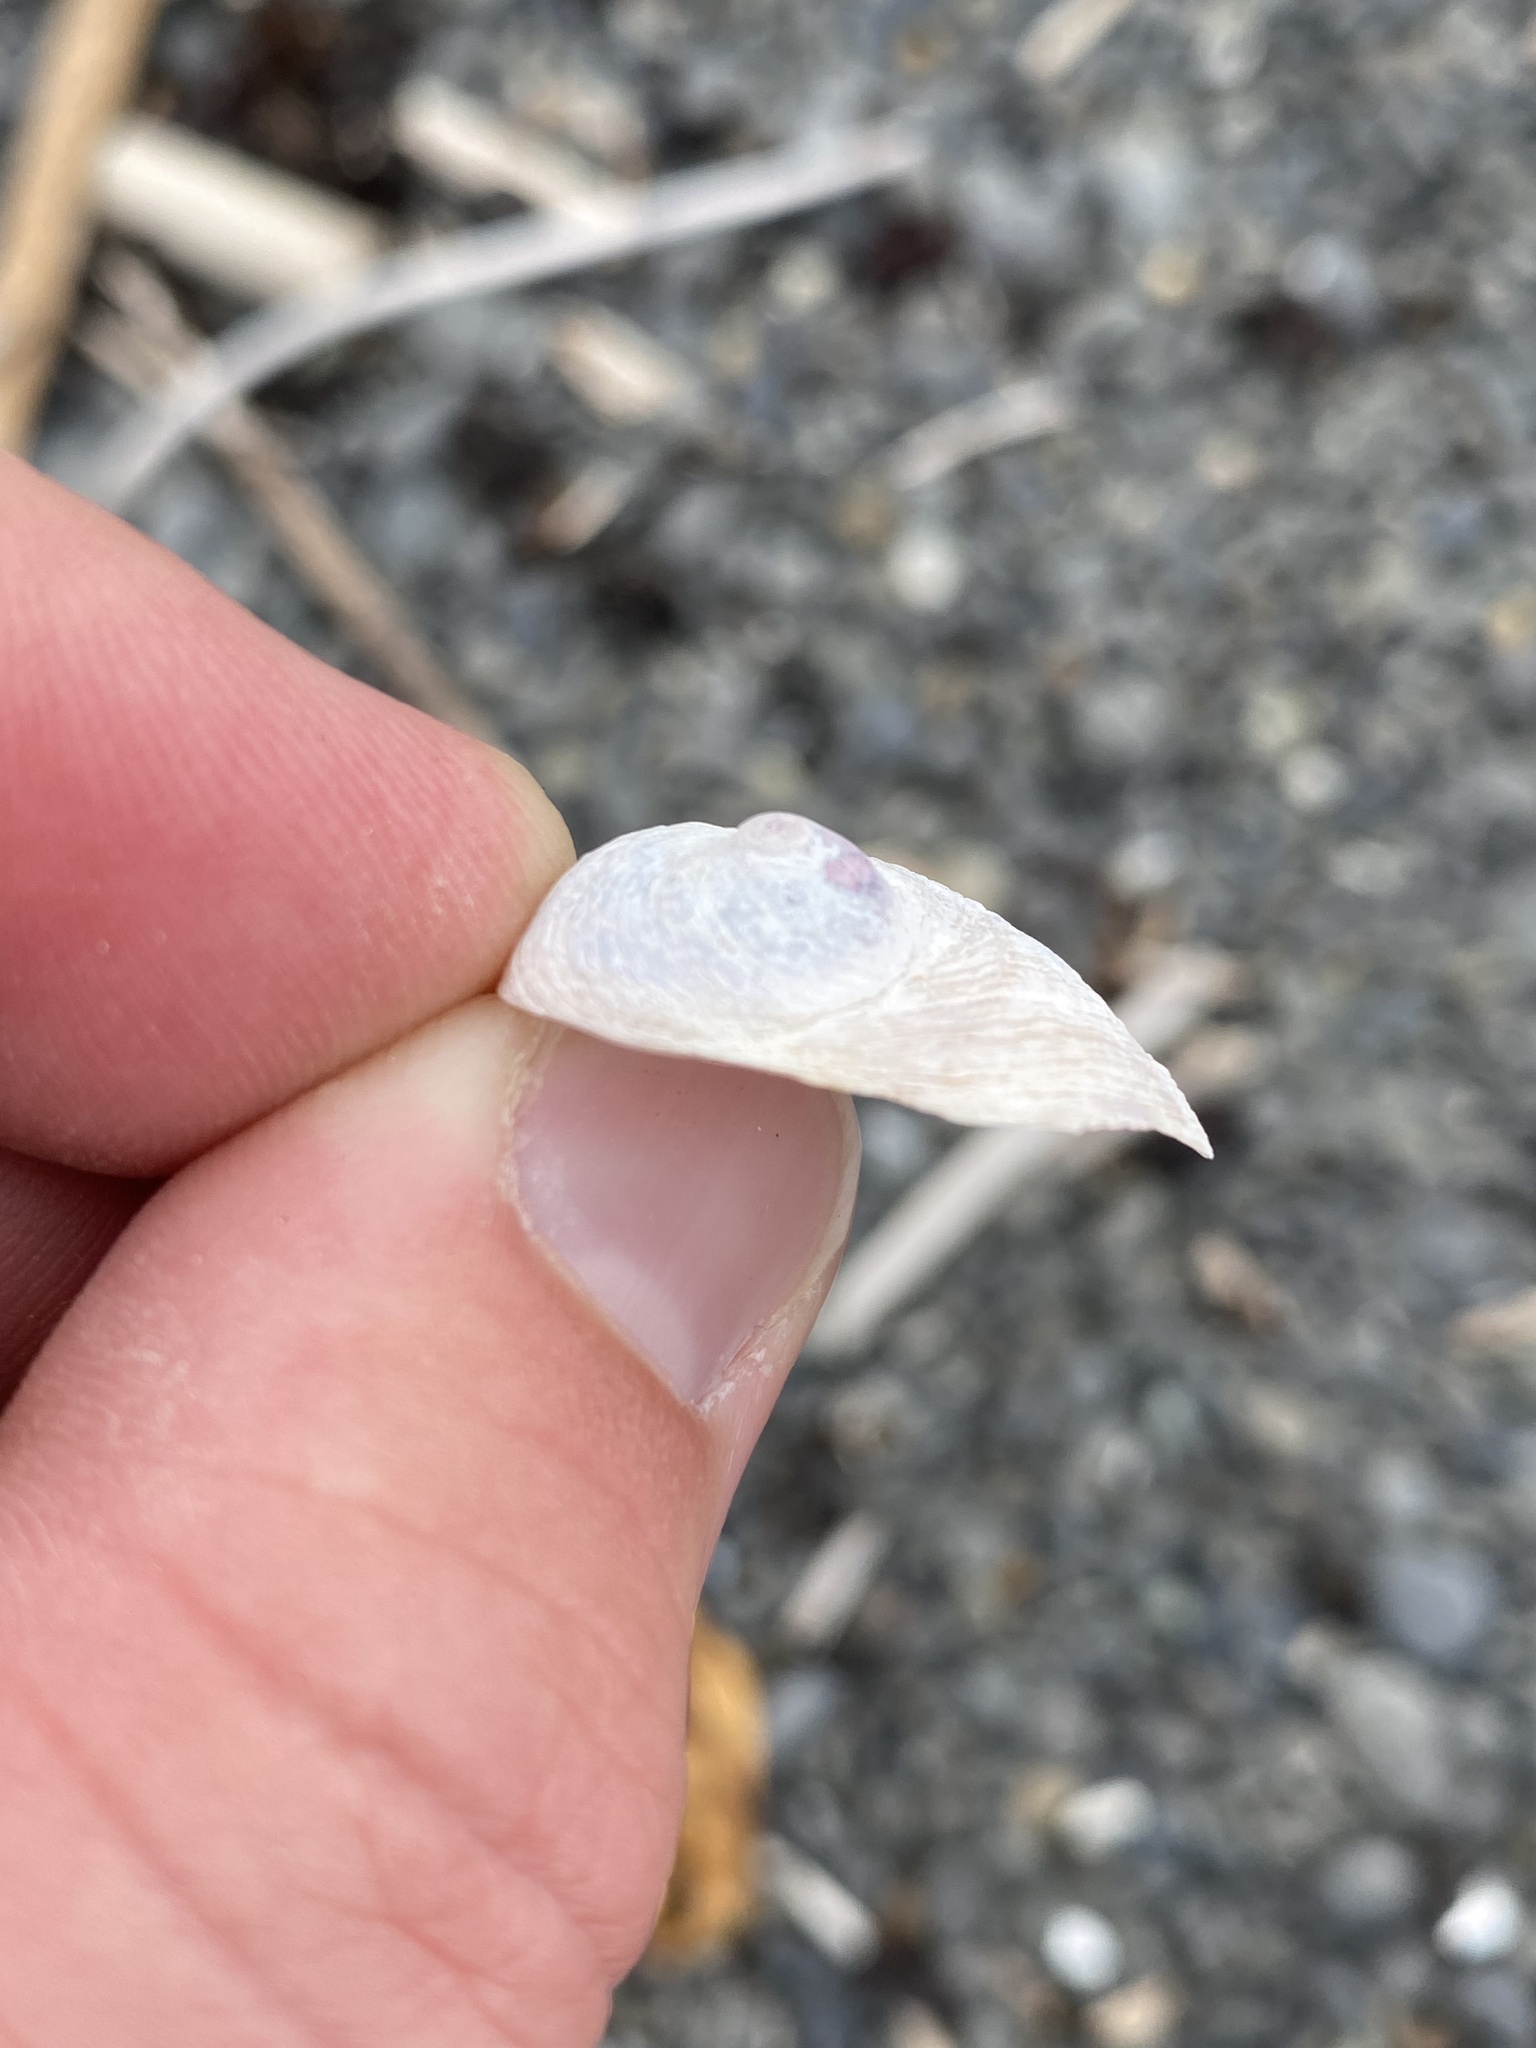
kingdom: Animalia
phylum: Mollusca
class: Gastropoda
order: Littorinimorpha
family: Calyptraeidae
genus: Sigapatella
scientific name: Sigapatella novaezelandiae
